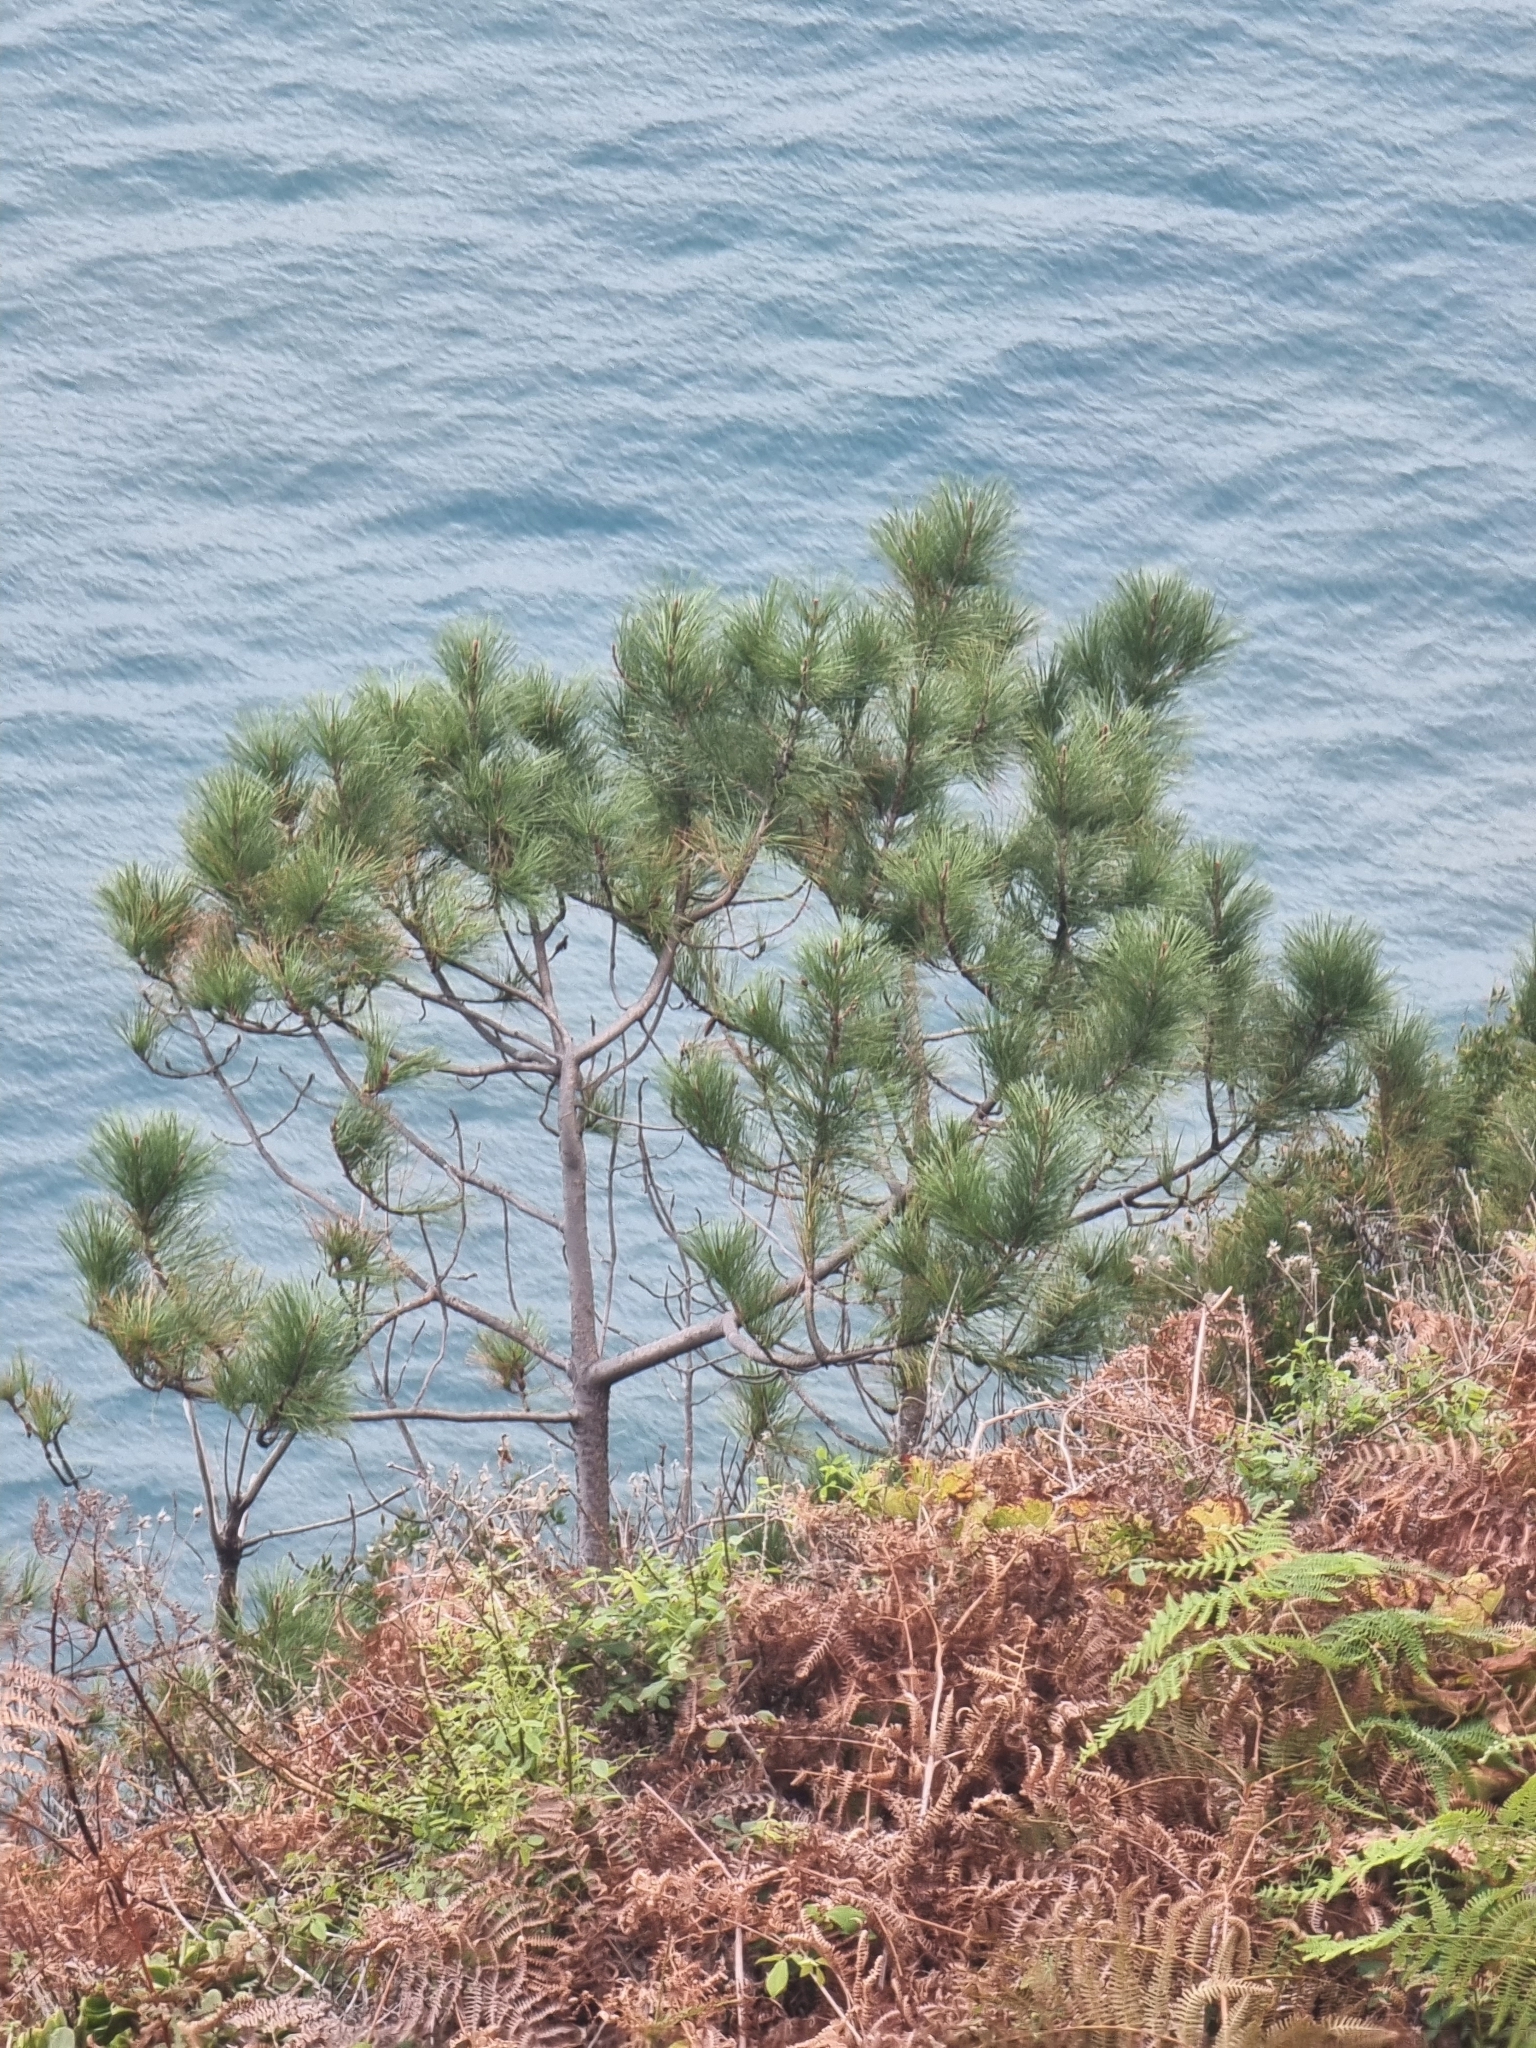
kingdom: Plantae
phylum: Tracheophyta
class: Pinopsida
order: Pinales
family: Pinaceae
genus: Pinus
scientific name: Pinus pinaster
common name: Maritime pine
